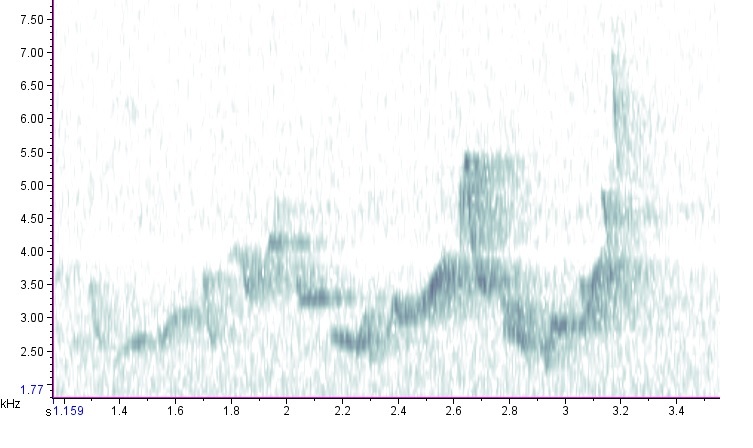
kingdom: Animalia
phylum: Chordata
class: Aves
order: Passeriformes
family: Vireonidae
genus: Vireo
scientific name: Vireo gilvus
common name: Warbling vireo
